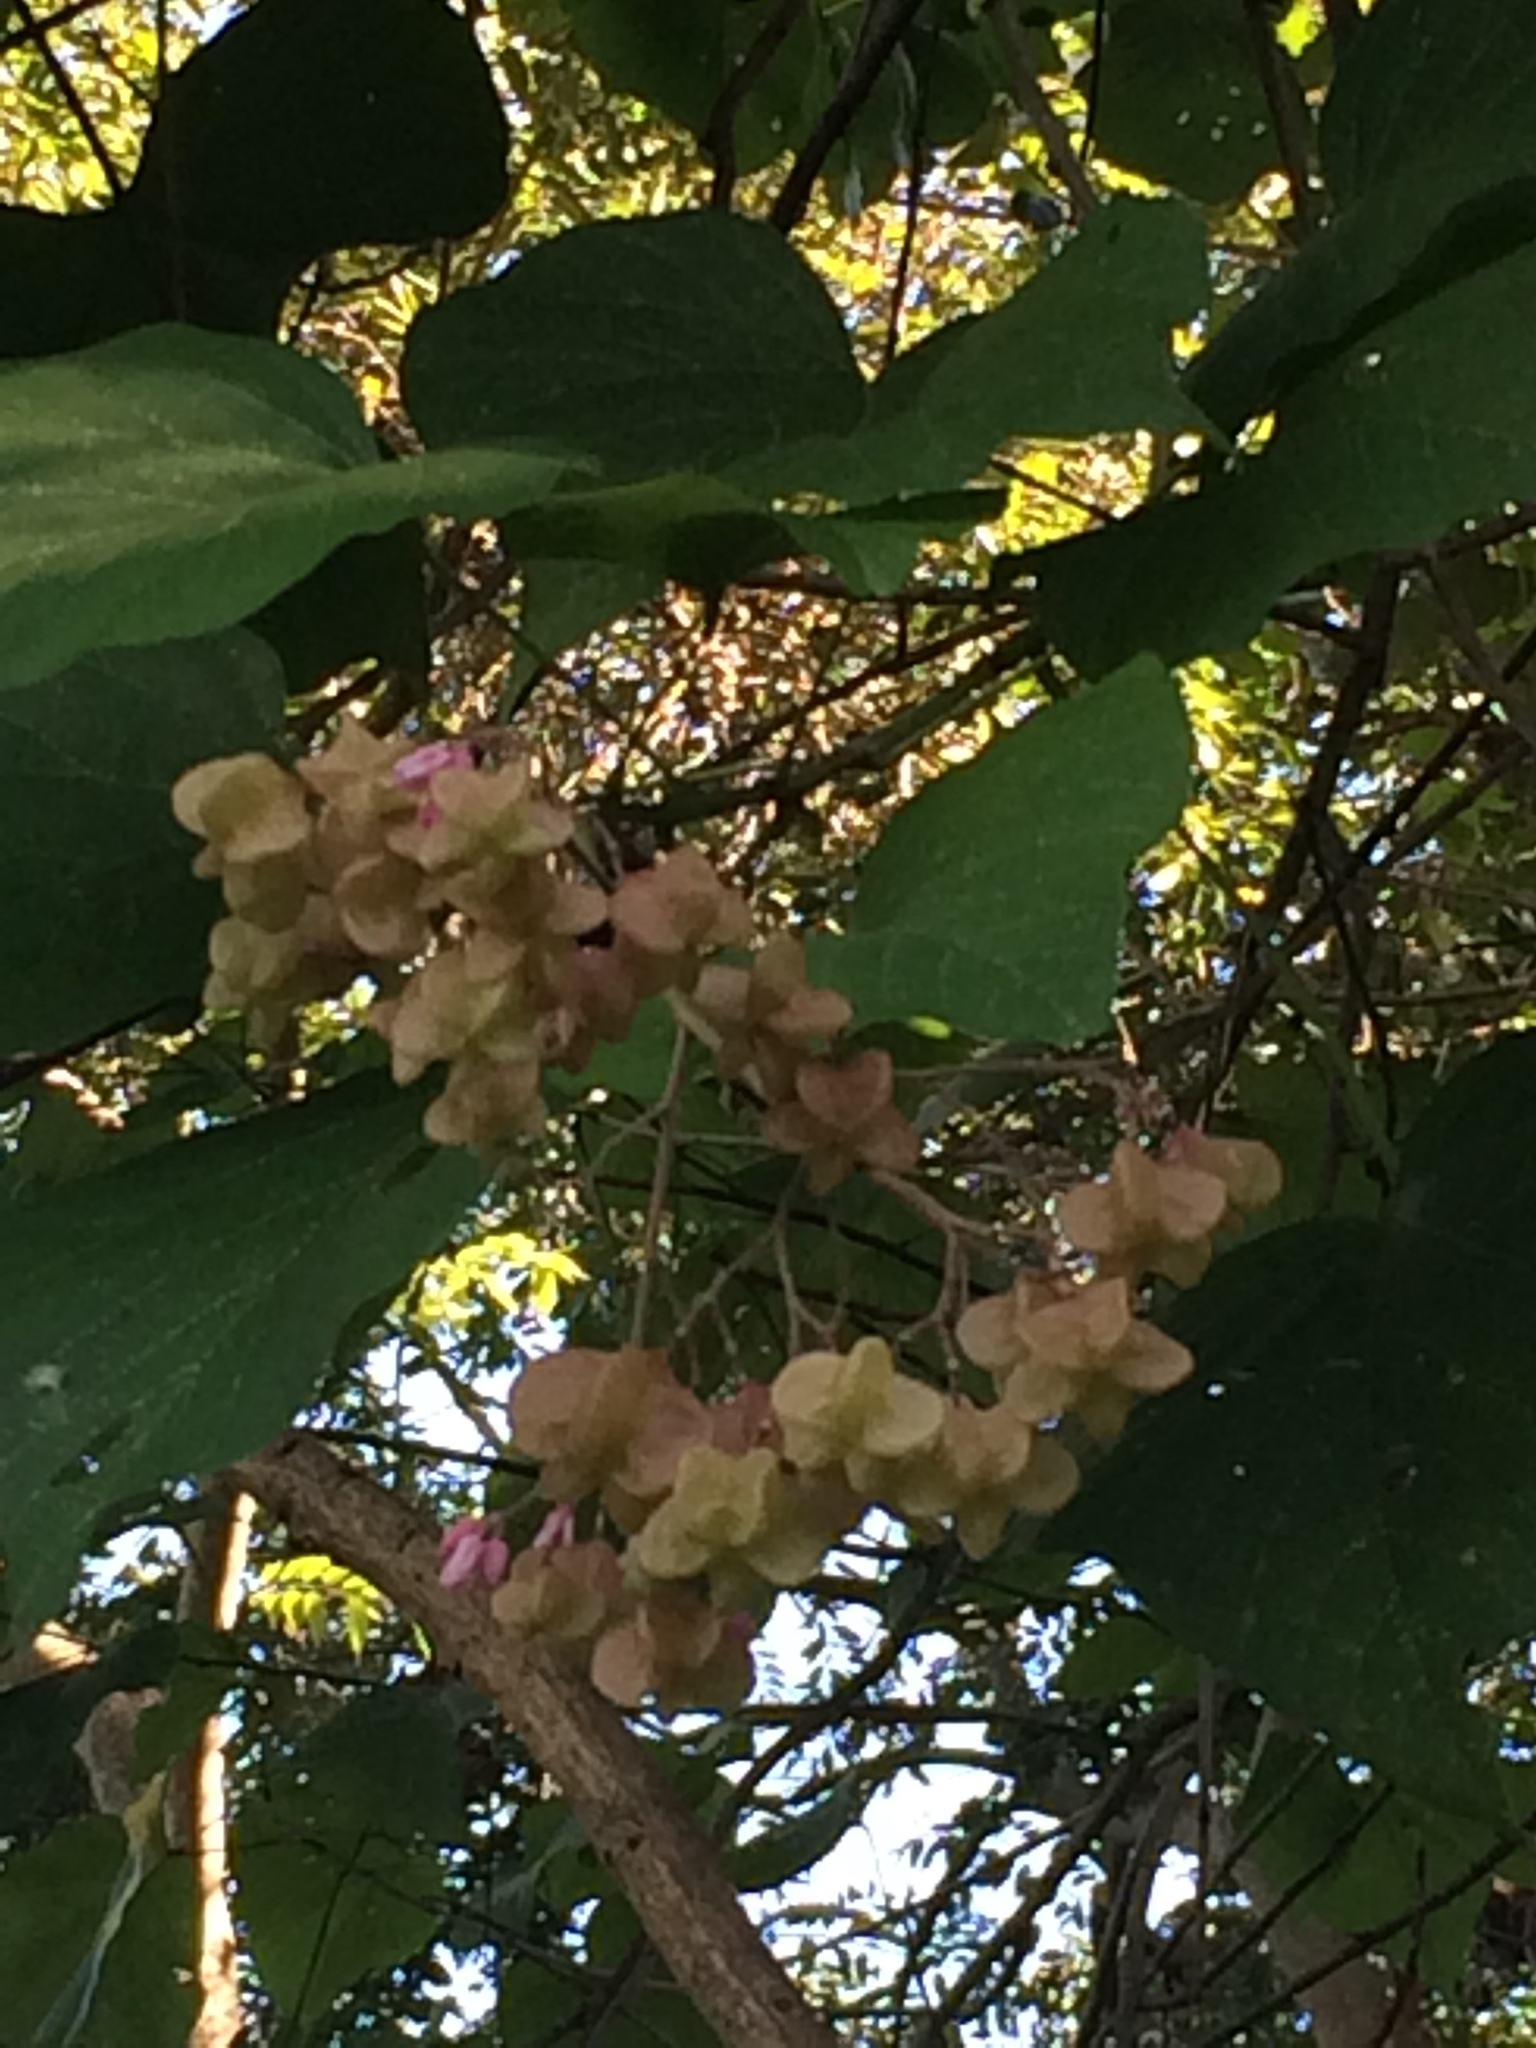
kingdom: Plantae
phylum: Tracheophyta
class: Magnoliopsida
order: Malvales
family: Malvaceae
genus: Kleinhovia
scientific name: Kleinhovia hospita
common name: Guest-tree
